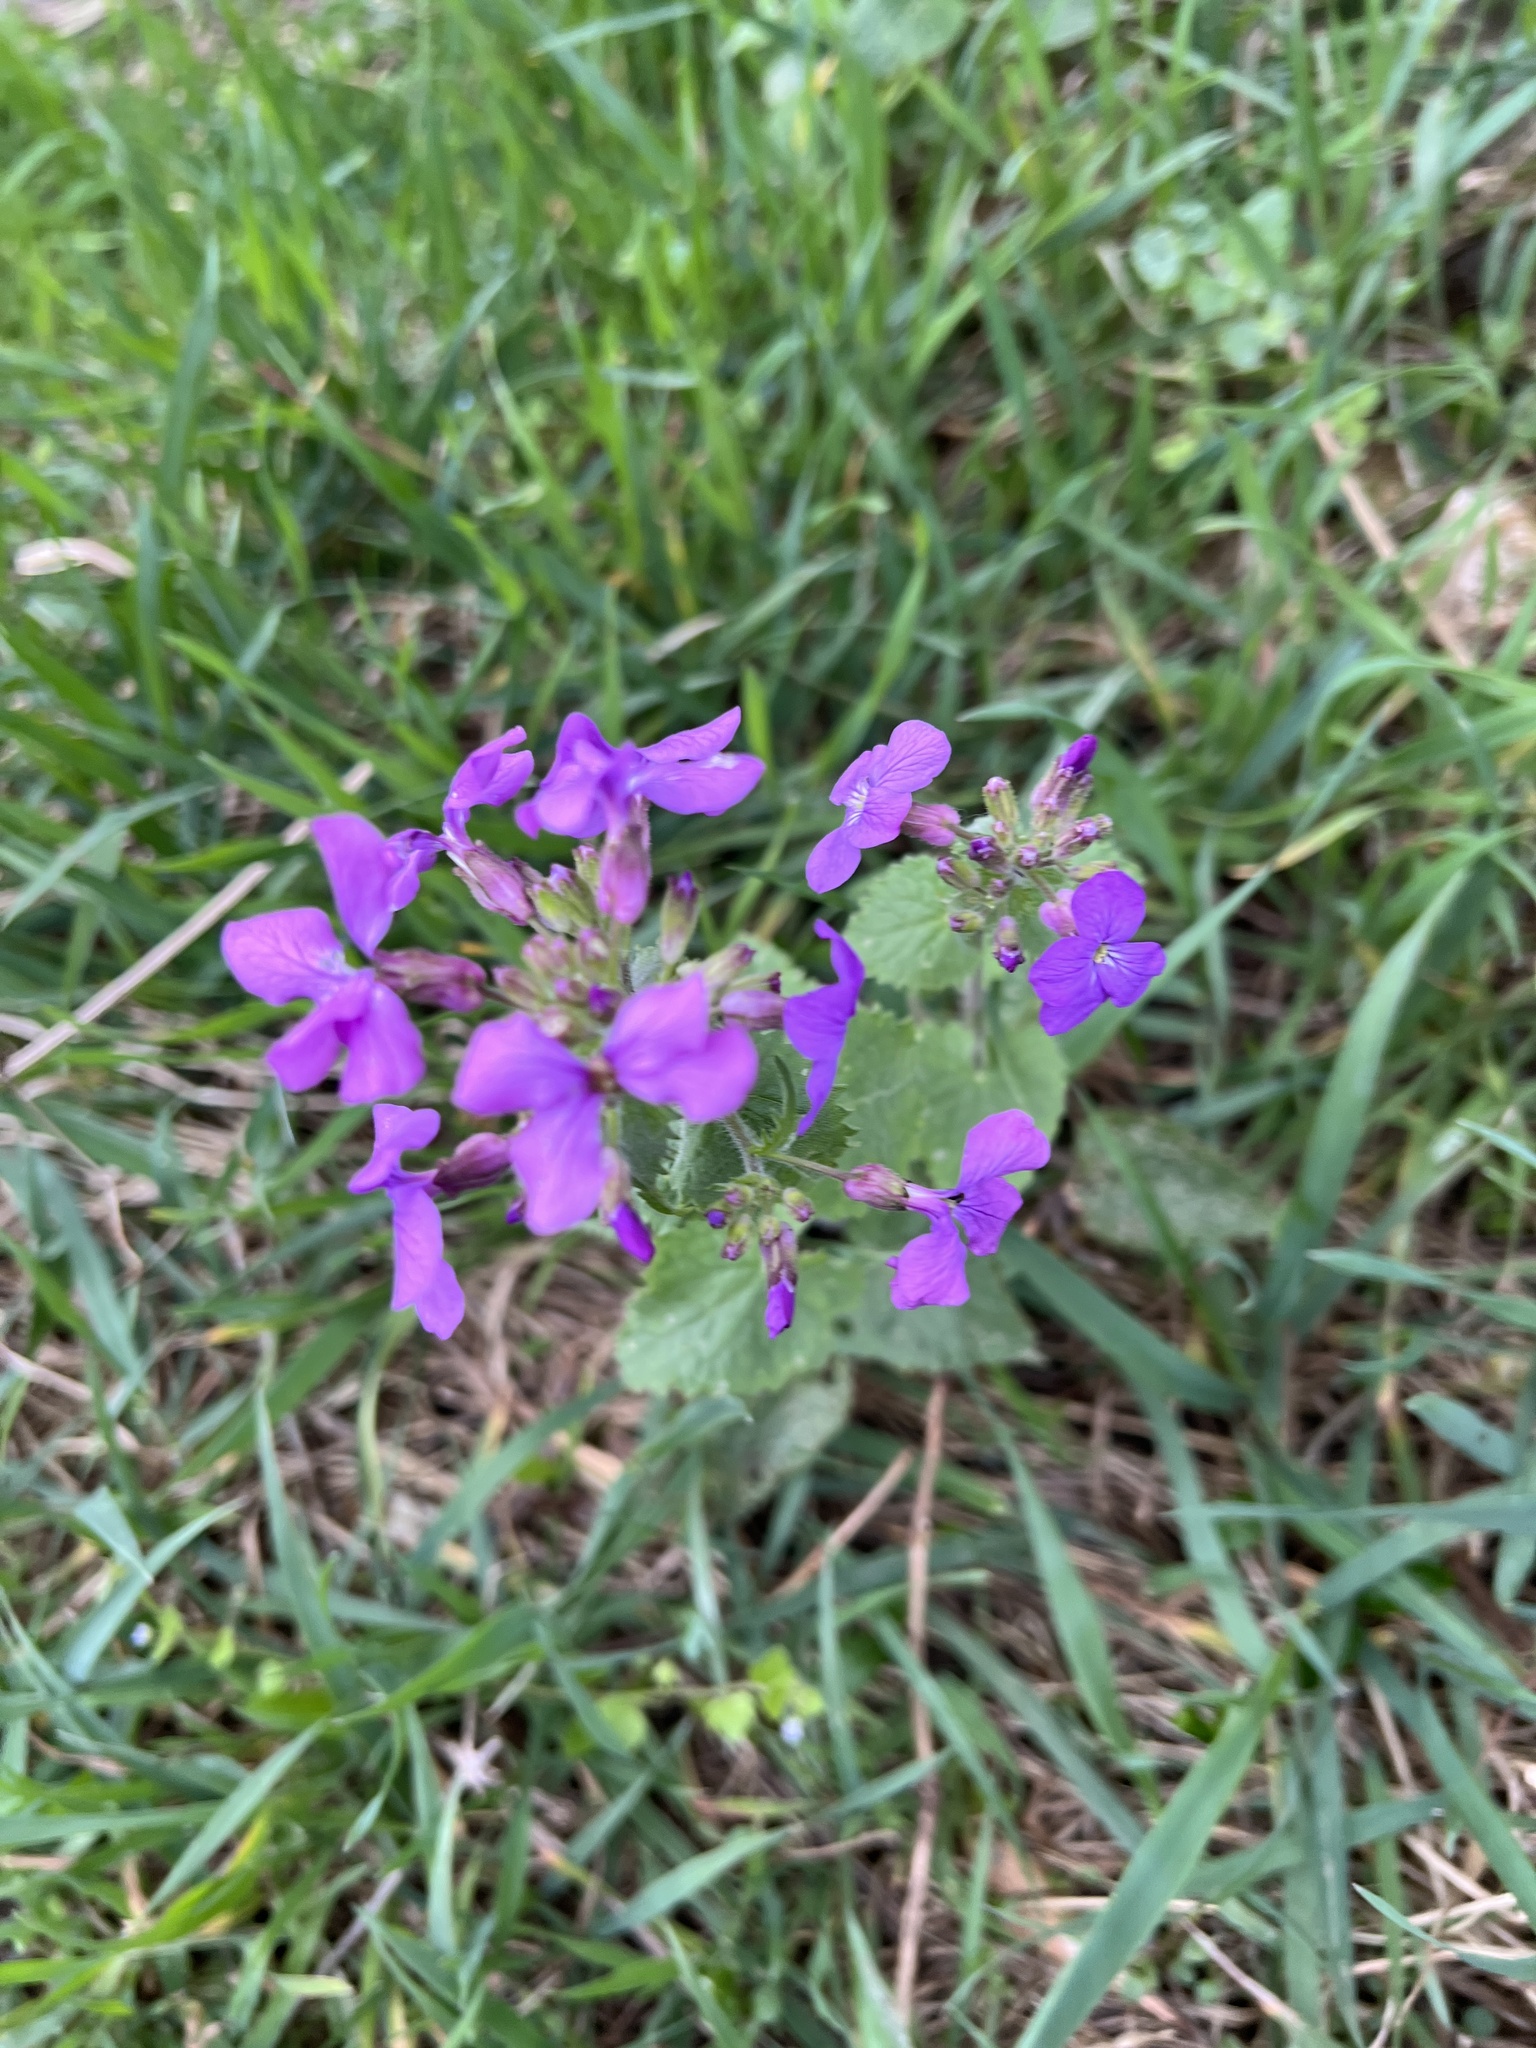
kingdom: Plantae
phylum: Tracheophyta
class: Magnoliopsida
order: Brassicales
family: Brassicaceae
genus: Lunaria
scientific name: Lunaria annua
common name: Honesty
